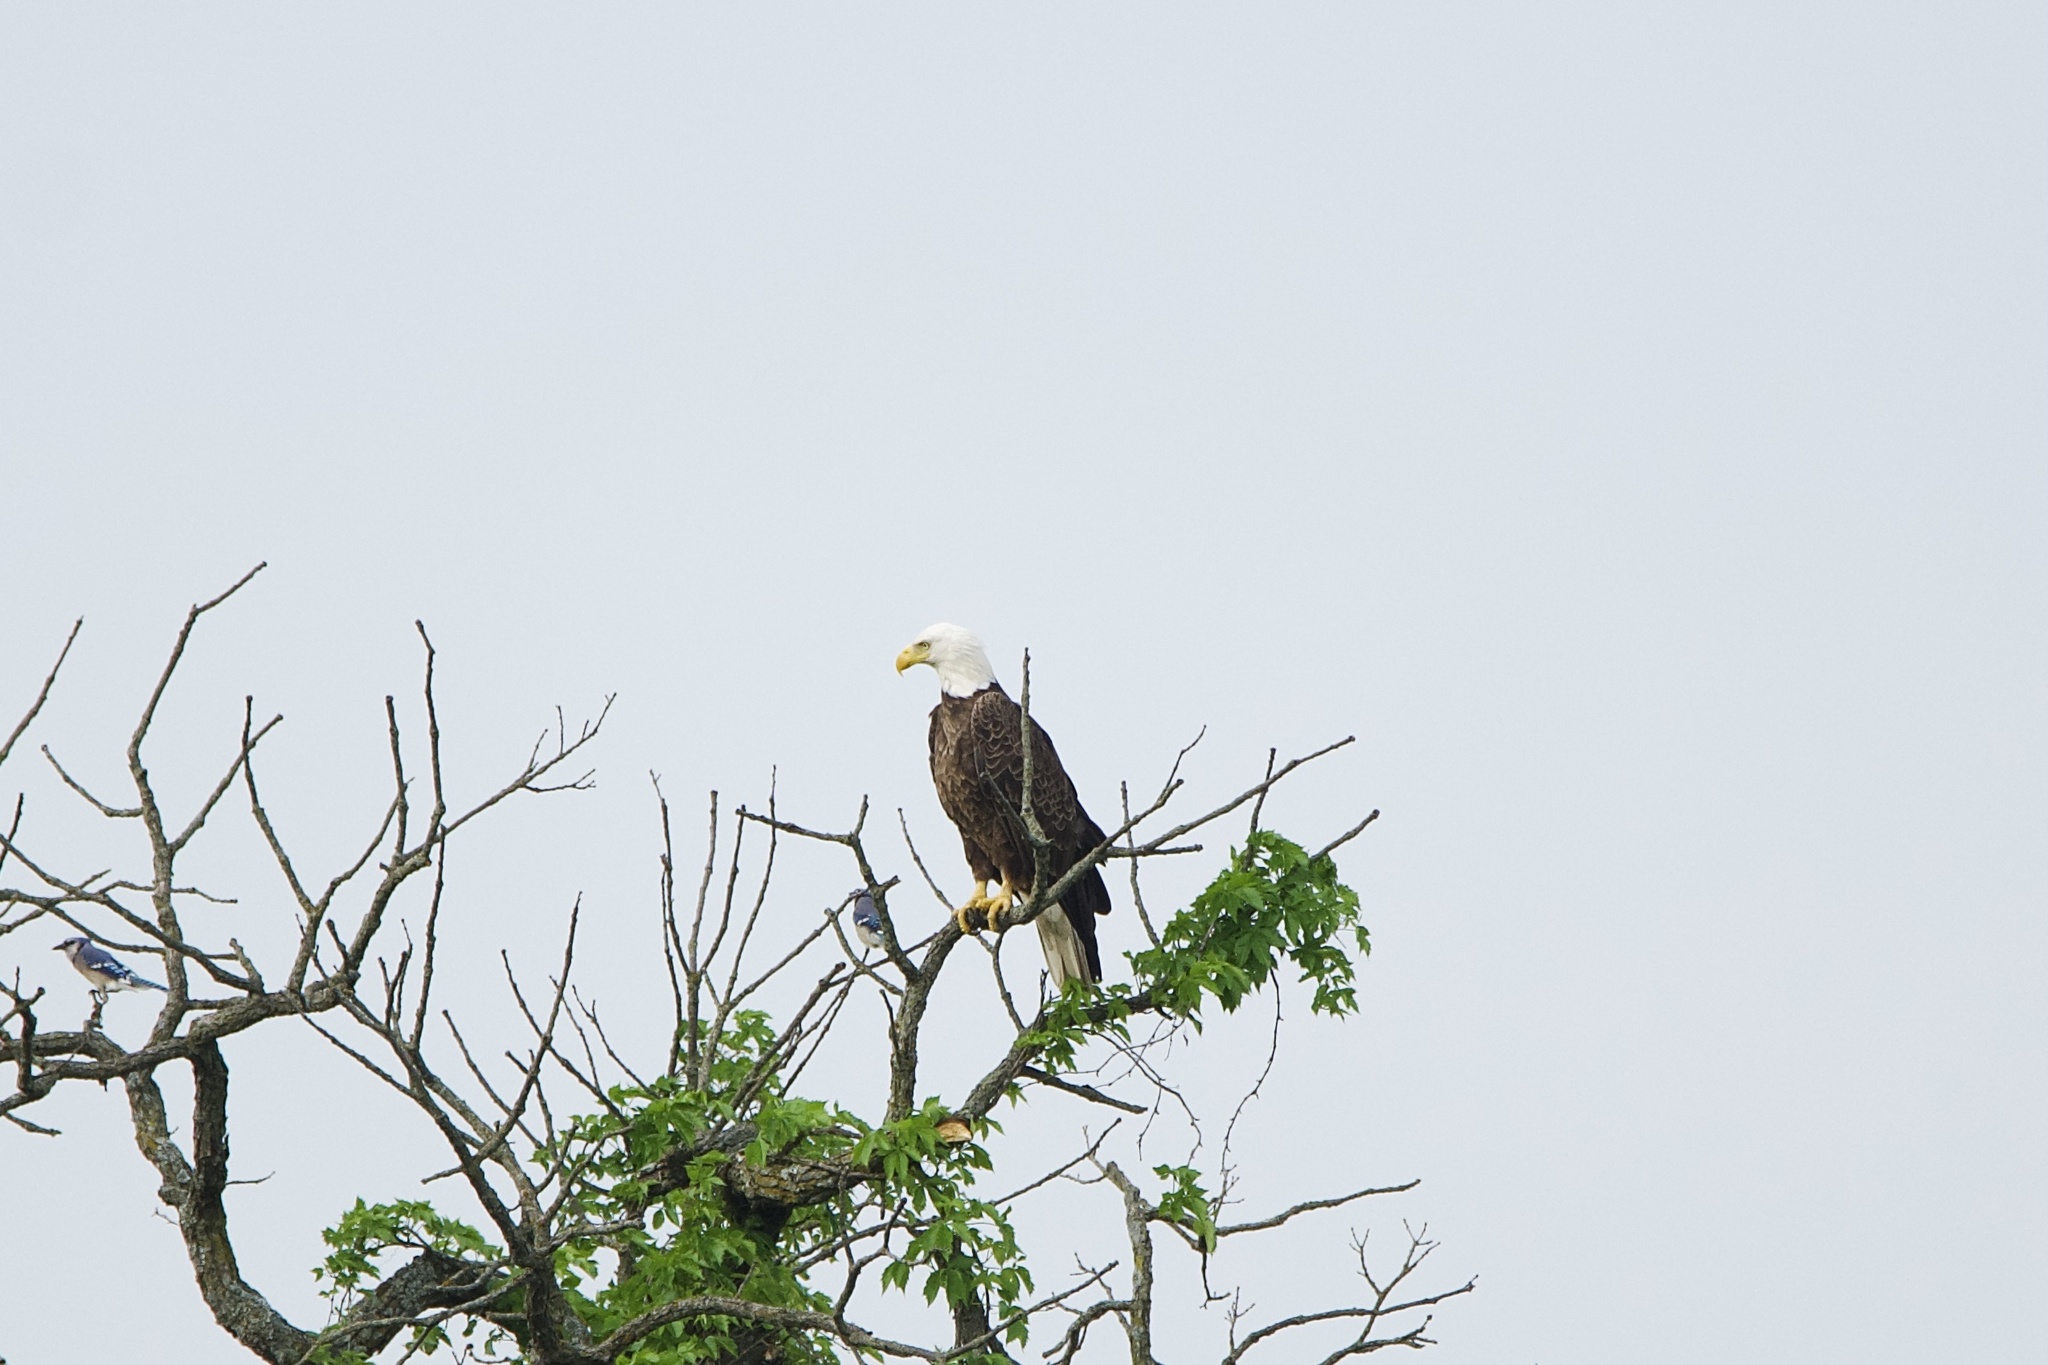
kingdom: Animalia
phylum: Chordata
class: Aves
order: Accipitriformes
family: Accipitridae
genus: Haliaeetus
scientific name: Haliaeetus leucocephalus
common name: Bald eagle
